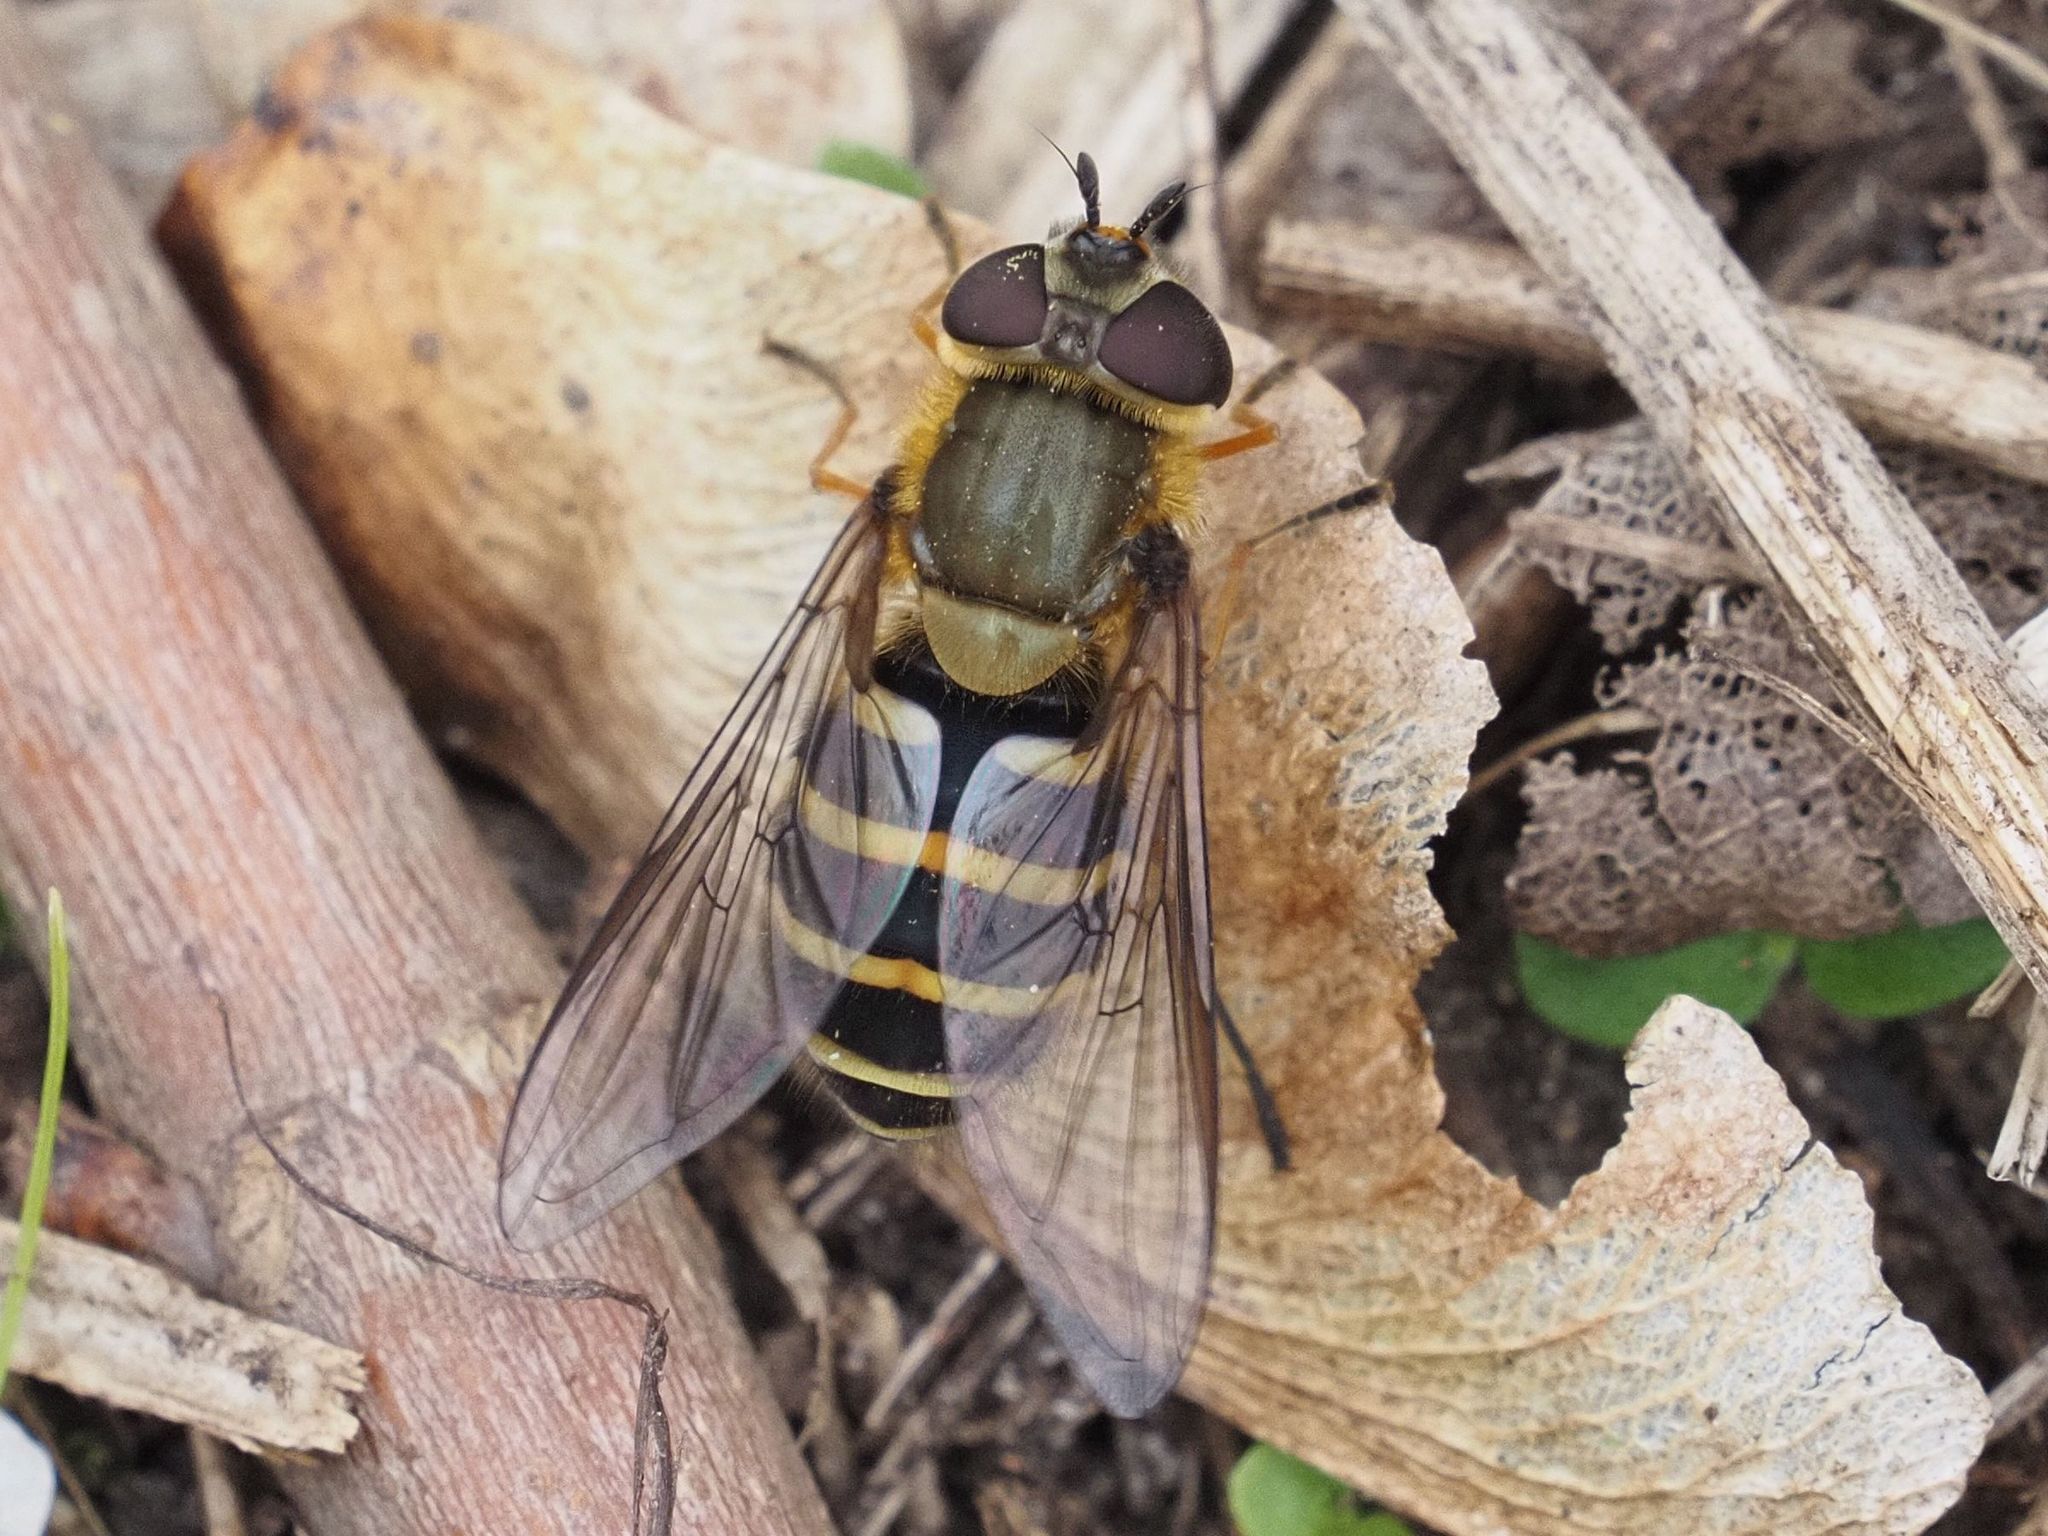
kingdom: Animalia
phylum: Arthropoda
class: Insecta
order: Diptera
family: Syrphidae
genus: Syrphus
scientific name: Syrphus torvus
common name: Hairy-eyed flower fly
